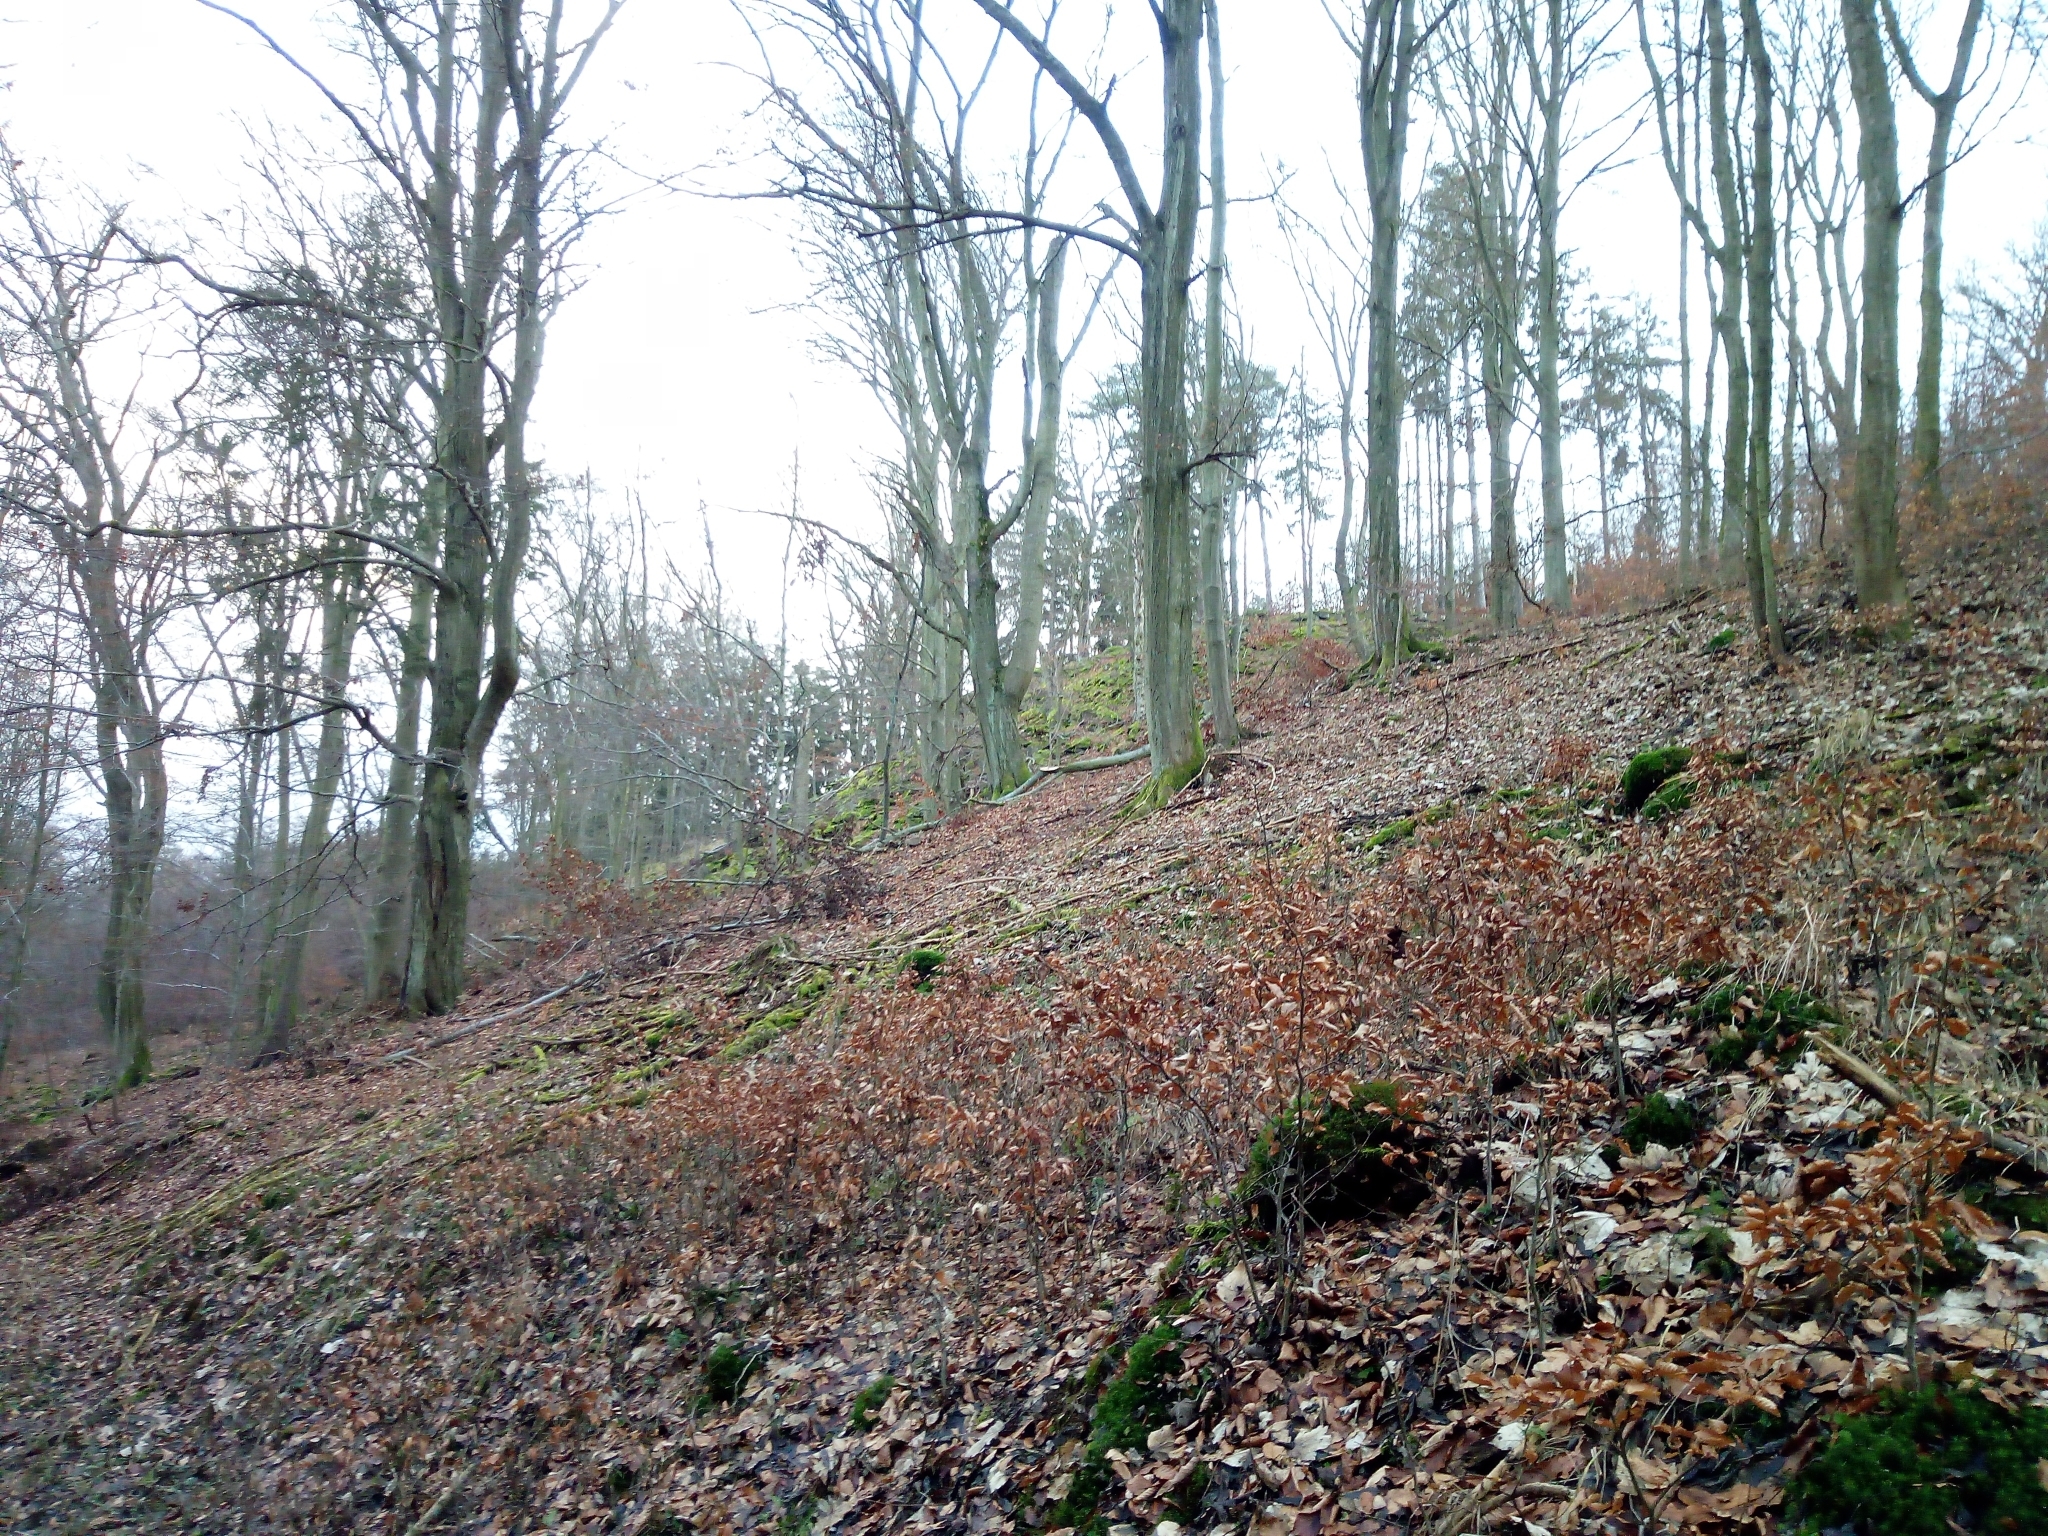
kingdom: Plantae
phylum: Tracheophyta
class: Magnoliopsida
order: Fagales
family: Fagaceae
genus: Fagus
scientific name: Fagus sylvatica
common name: Beech
